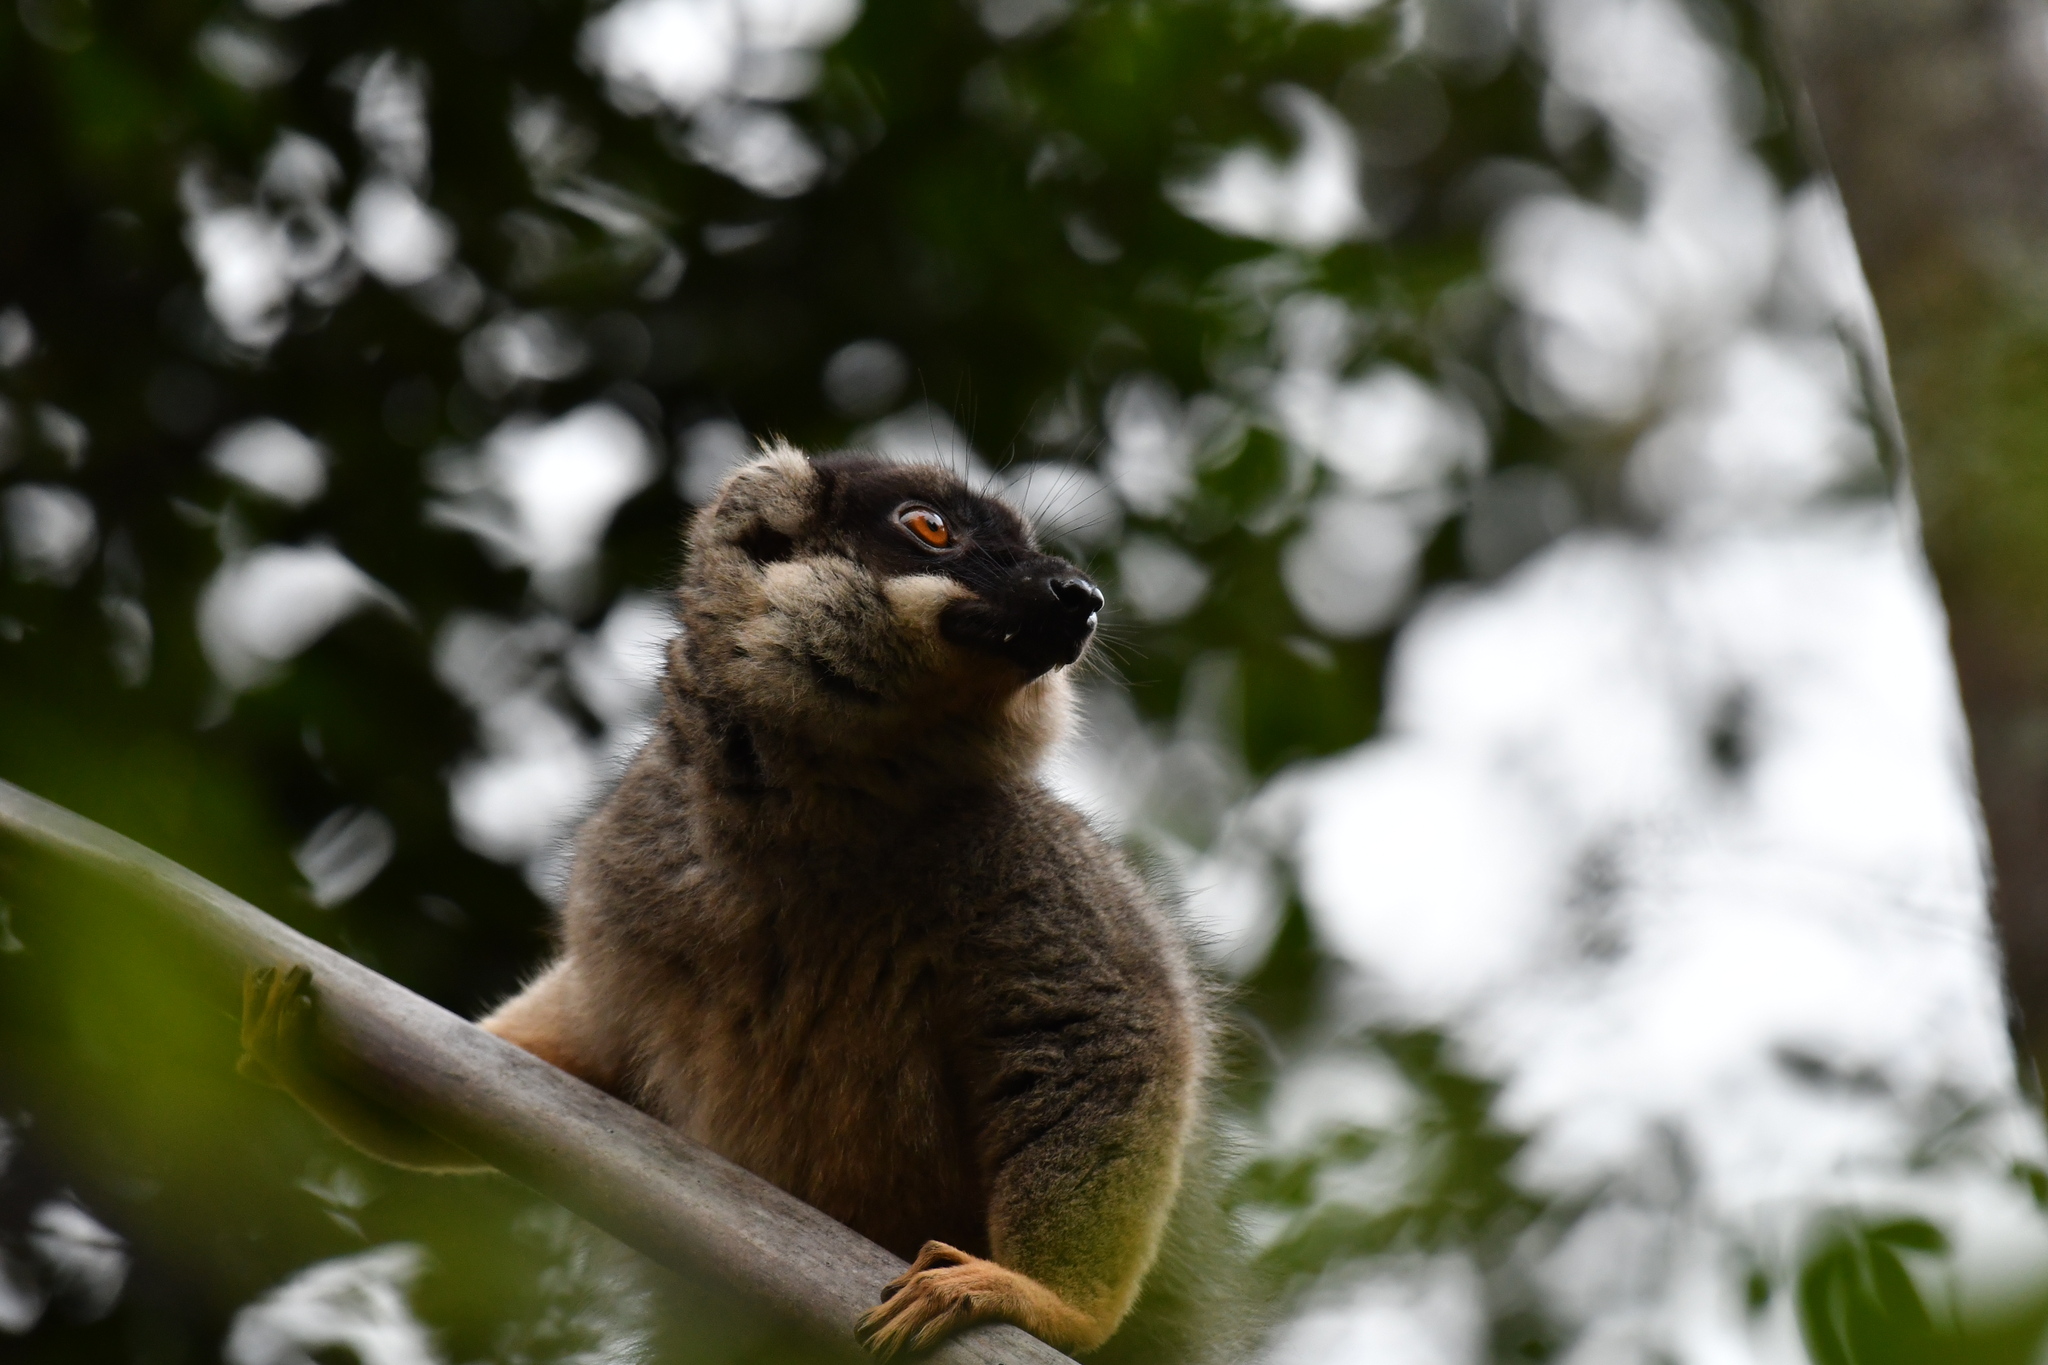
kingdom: Animalia
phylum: Chordata
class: Mammalia
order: Primates
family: Lemuridae
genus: Eulemur
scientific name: Eulemur fulvus
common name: Brown lemur
